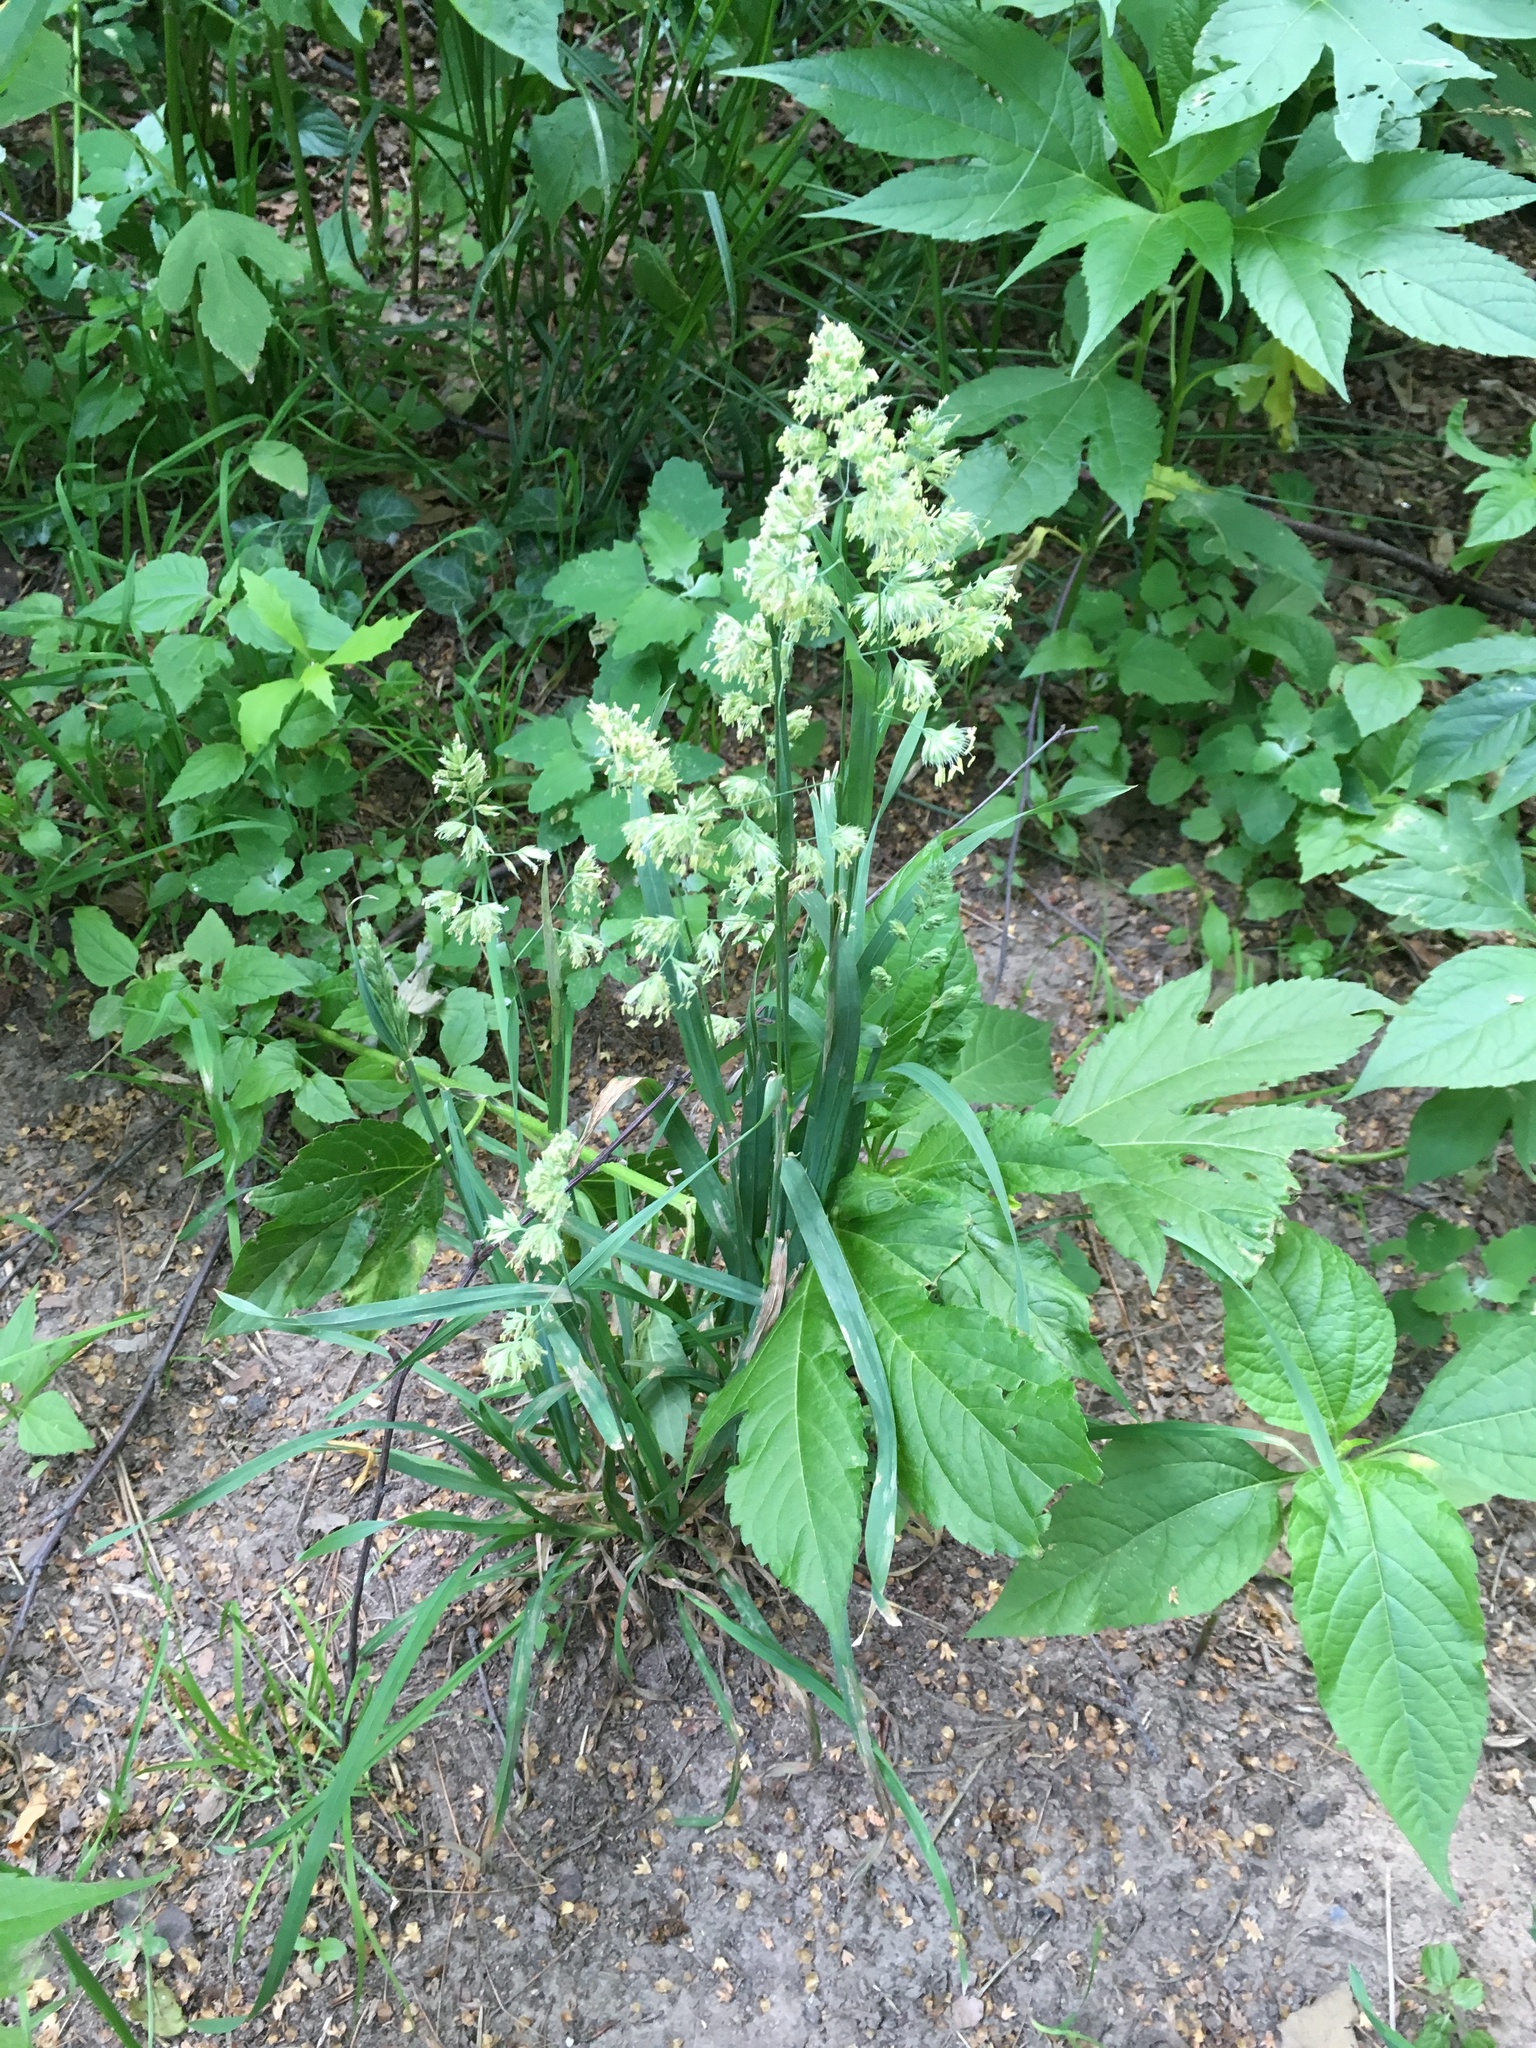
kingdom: Plantae
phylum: Tracheophyta
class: Liliopsida
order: Poales
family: Poaceae
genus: Dactylis
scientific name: Dactylis glomerata
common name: Orchardgrass
